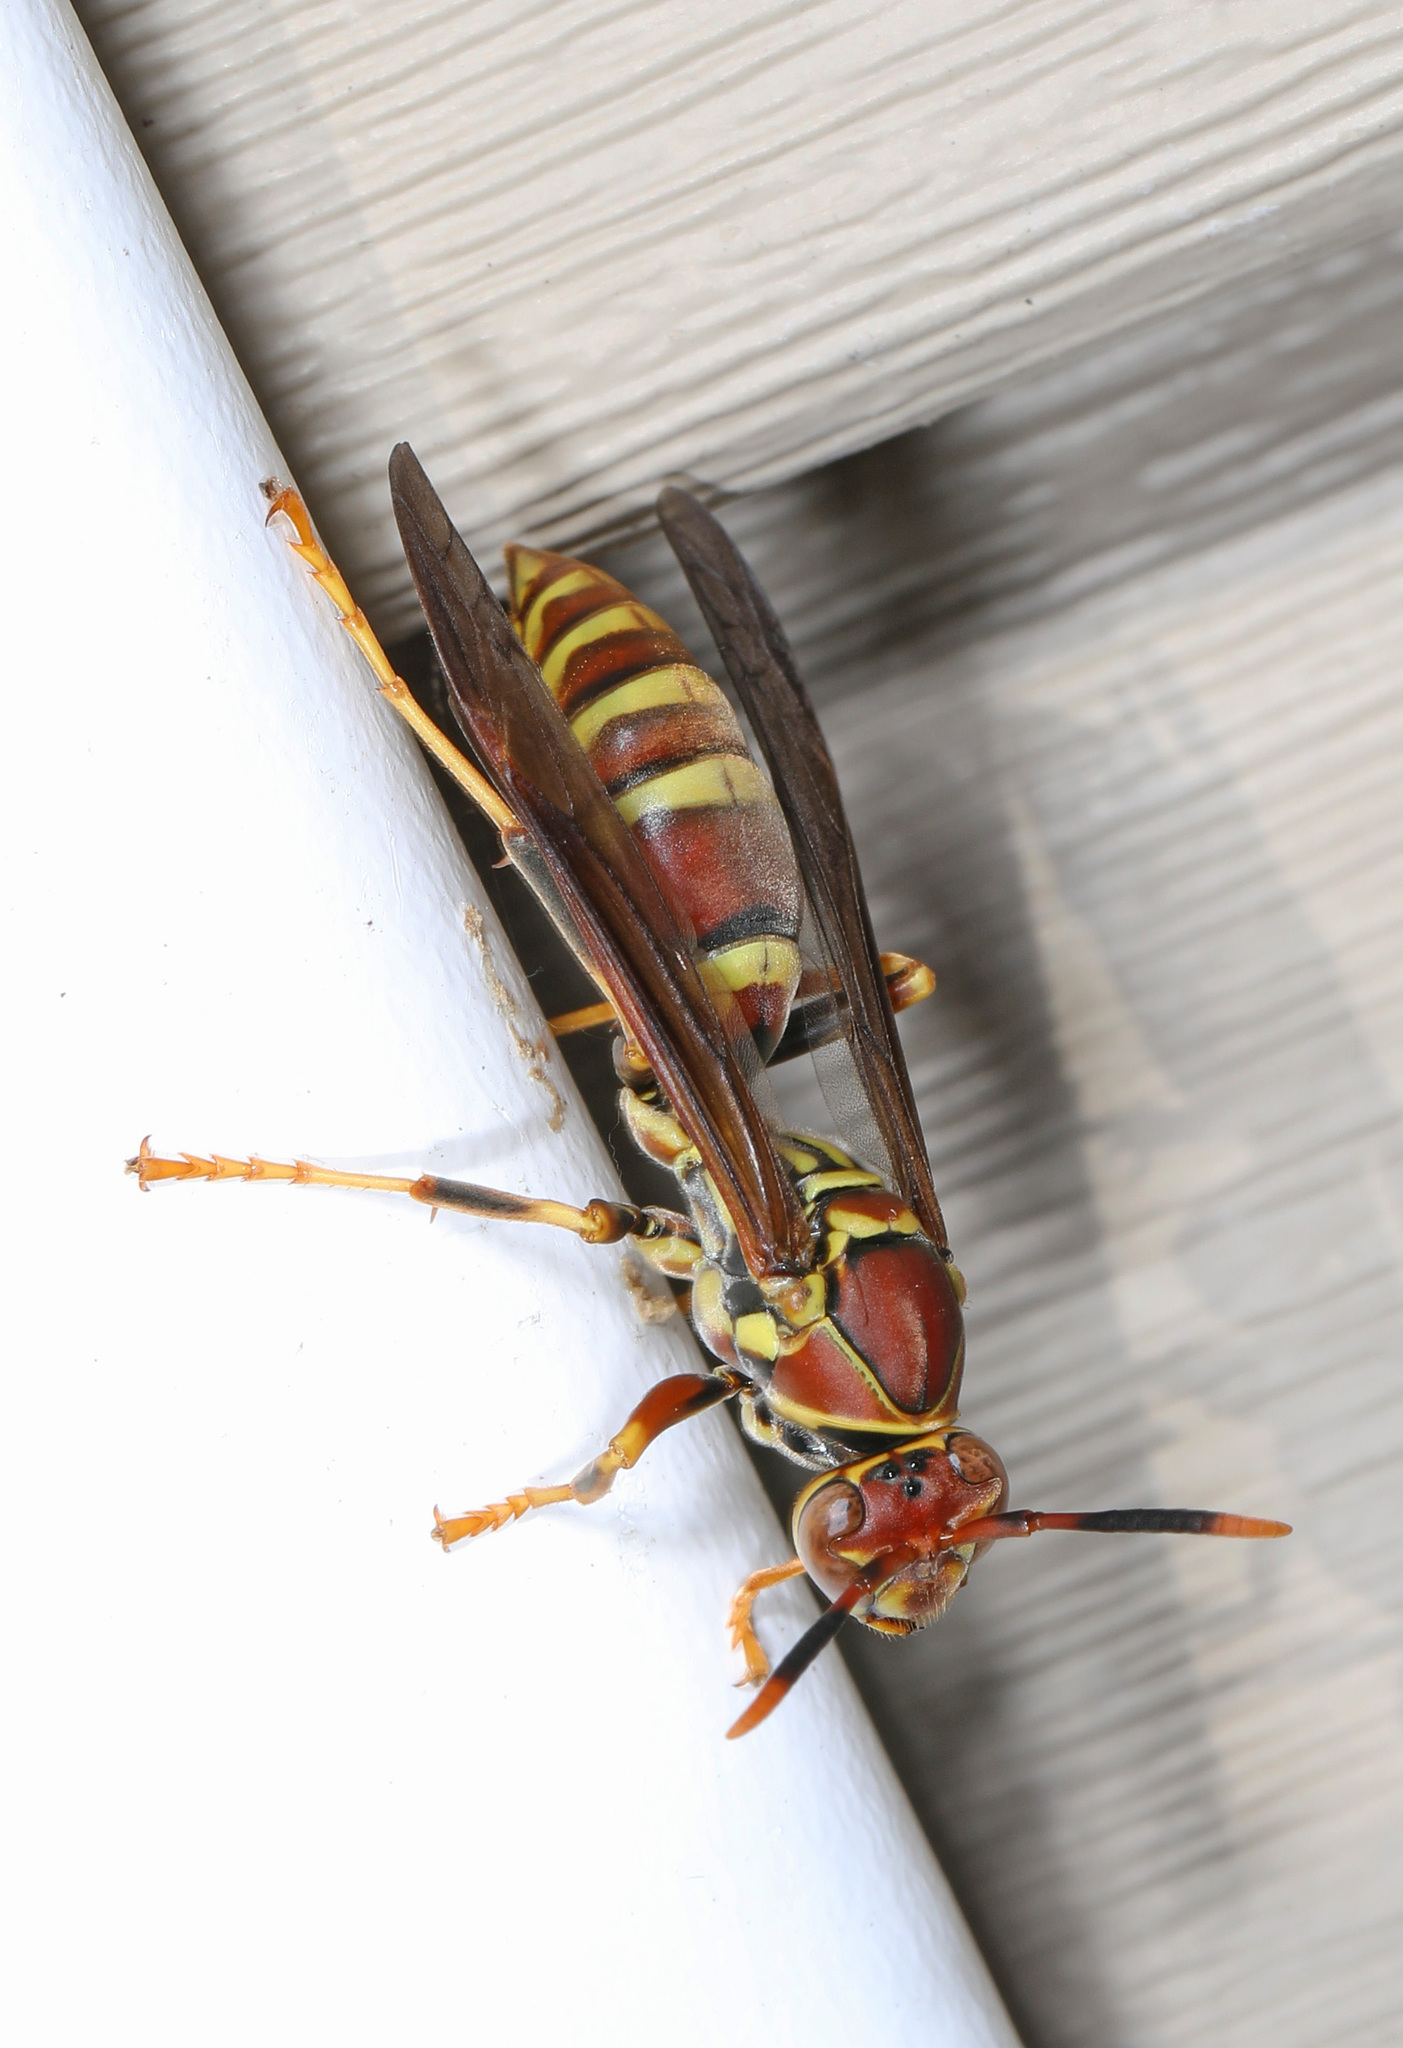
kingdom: Animalia
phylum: Arthropoda
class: Insecta
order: Hymenoptera
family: Eumenidae
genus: Polistes
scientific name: Polistes exclamans
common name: Paper wasp
